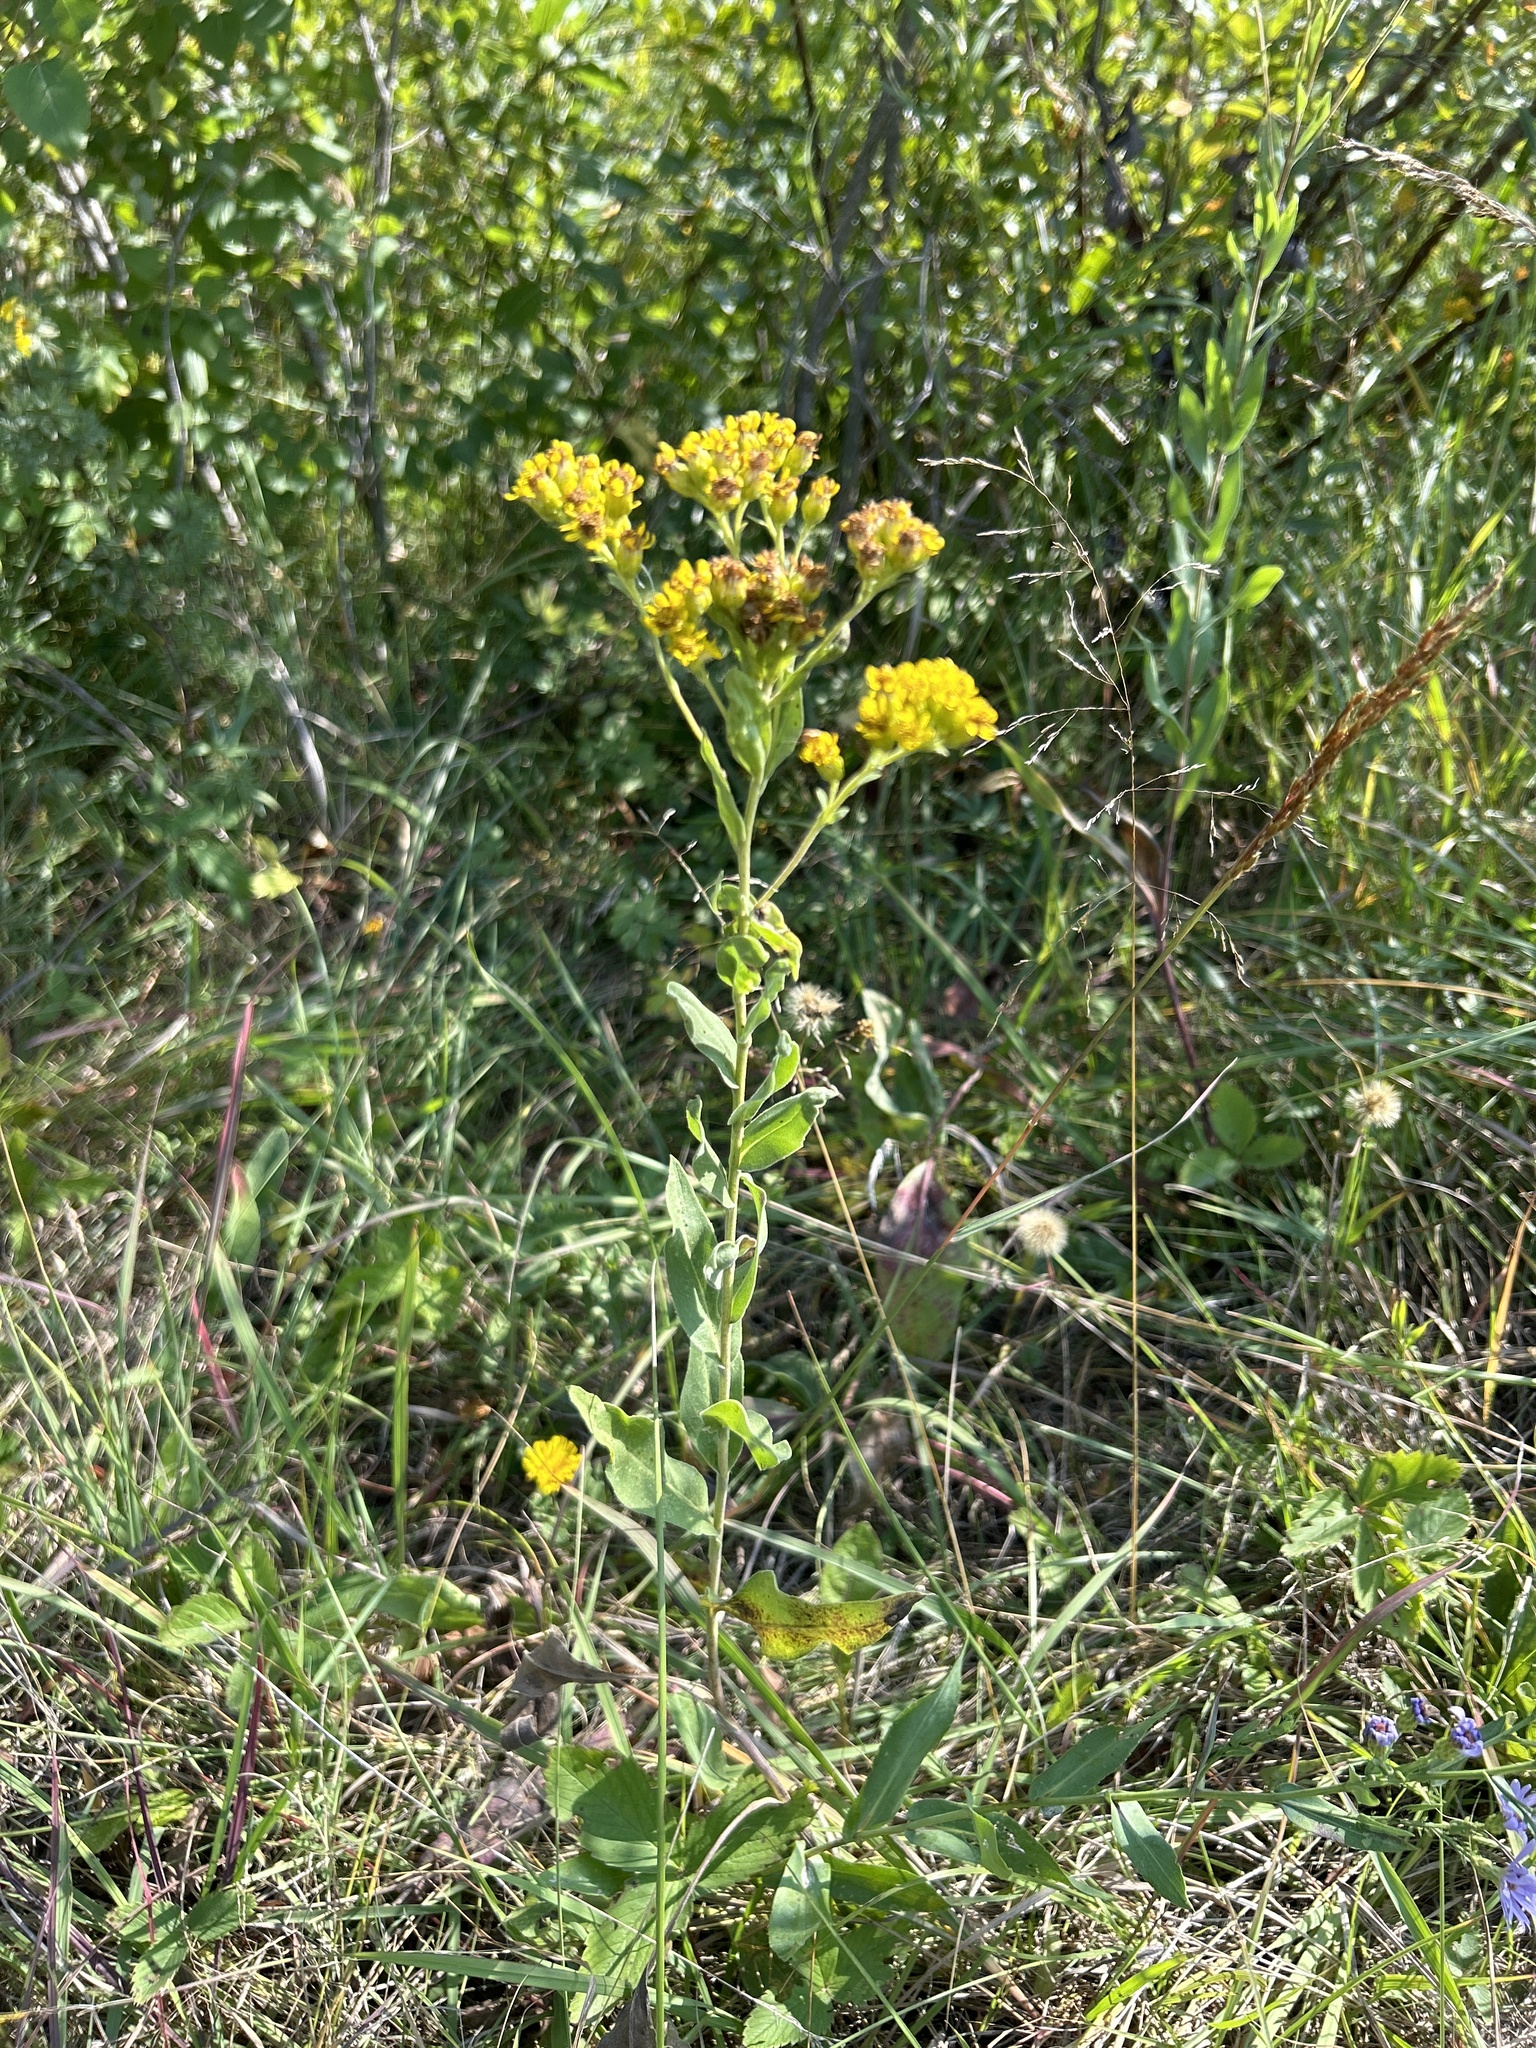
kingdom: Plantae
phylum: Tracheophyta
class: Magnoliopsida
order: Asterales
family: Asteraceae
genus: Solidago
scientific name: Solidago rigida
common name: Rigid goldenrod
